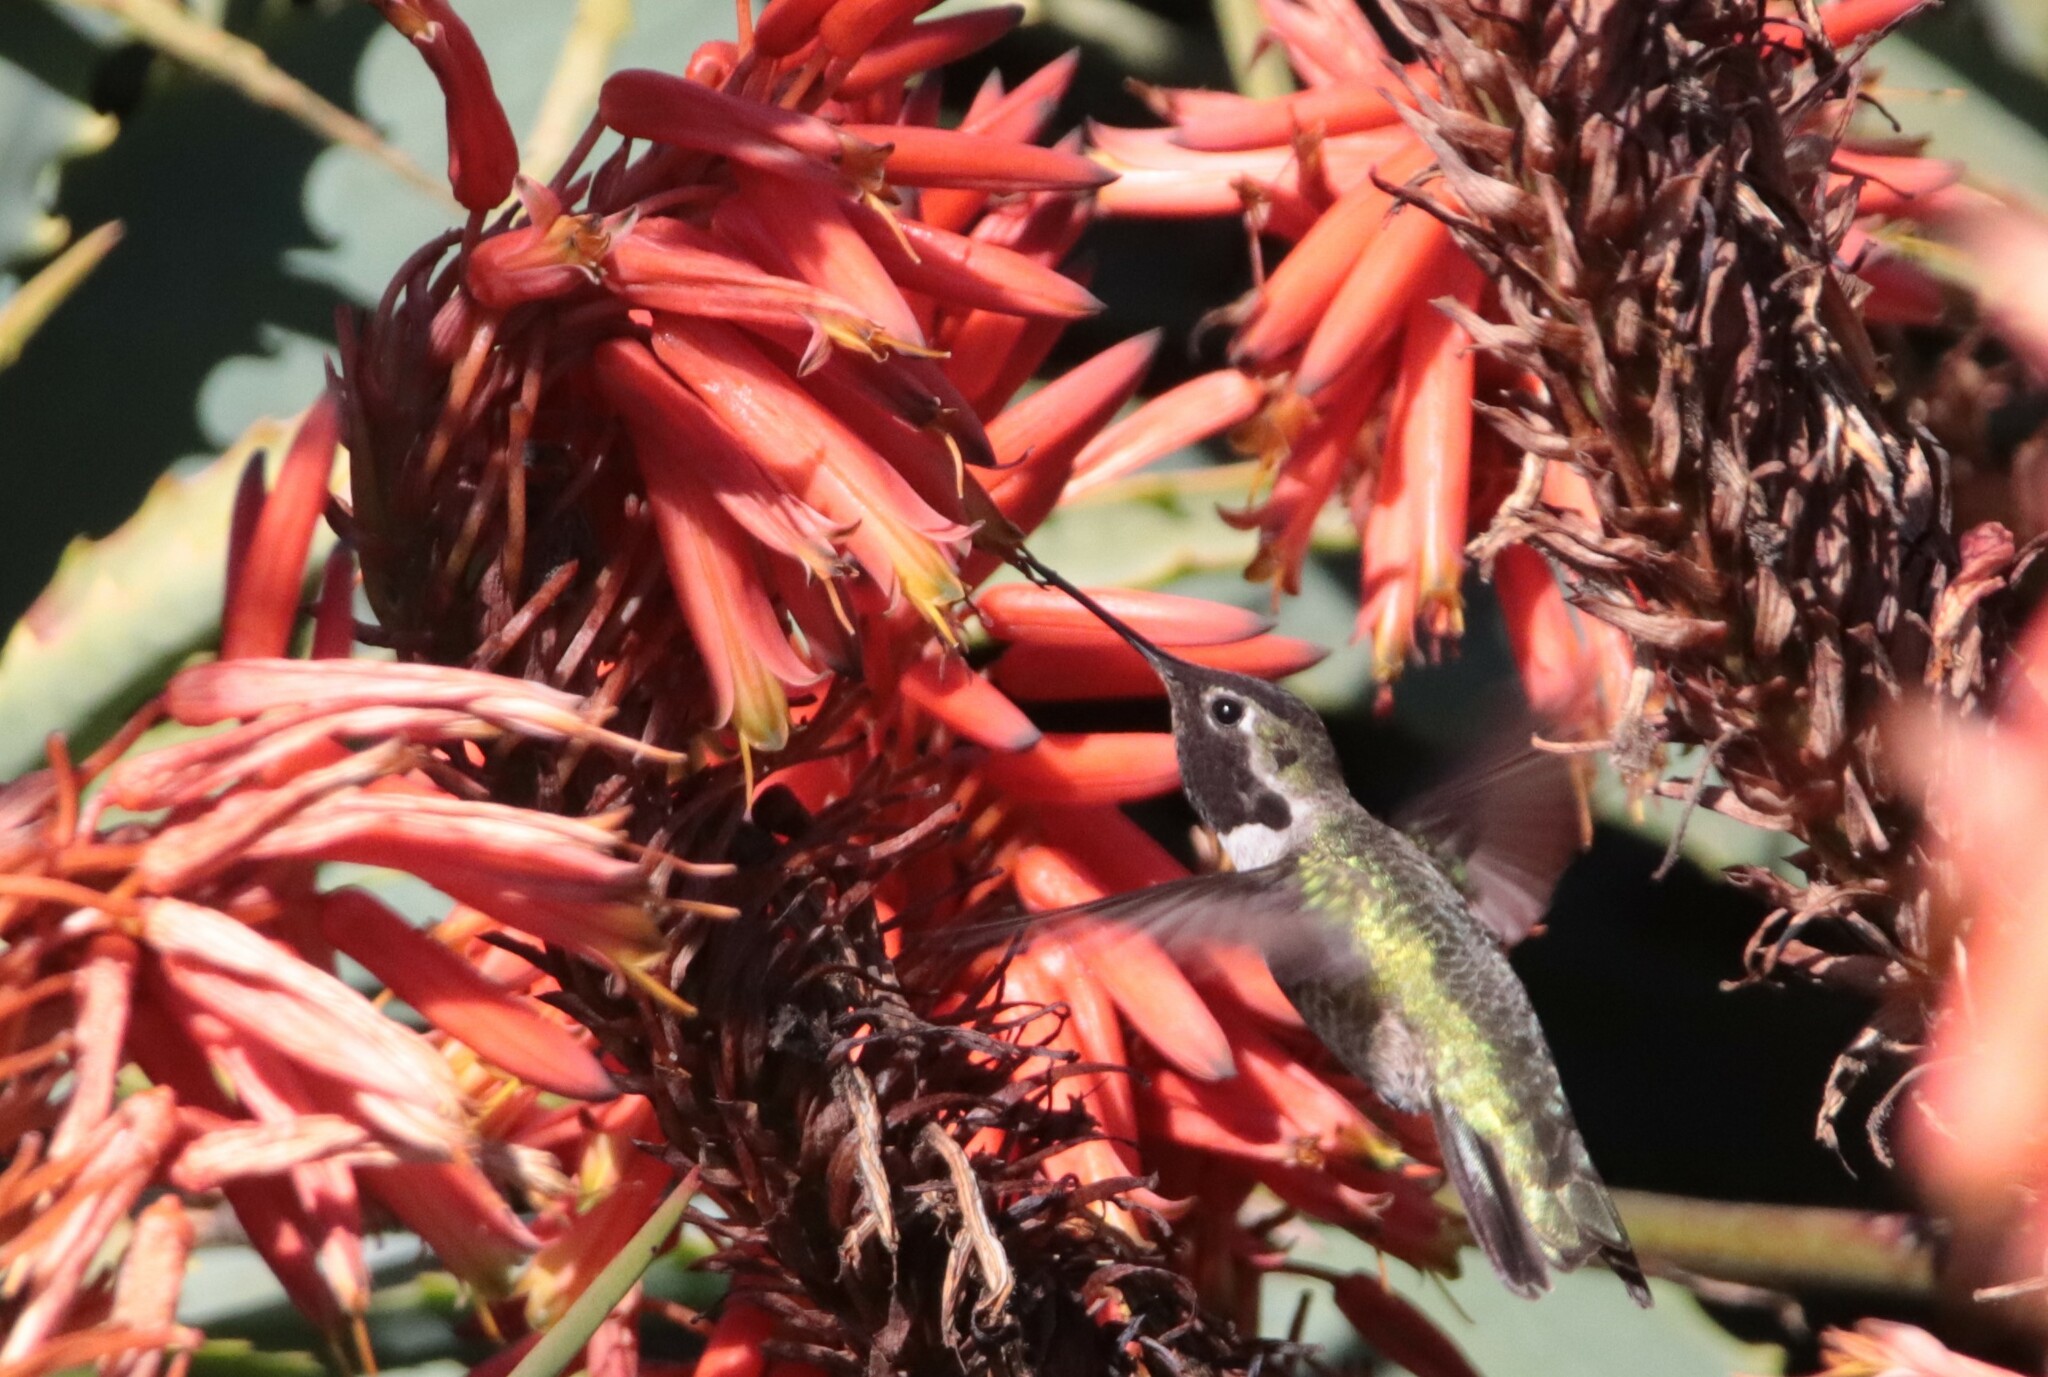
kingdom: Animalia
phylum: Chordata
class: Aves
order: Apodiformes
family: Trochilidae
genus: Calypte
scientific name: Calypte anna
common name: Anna's hummingbird
